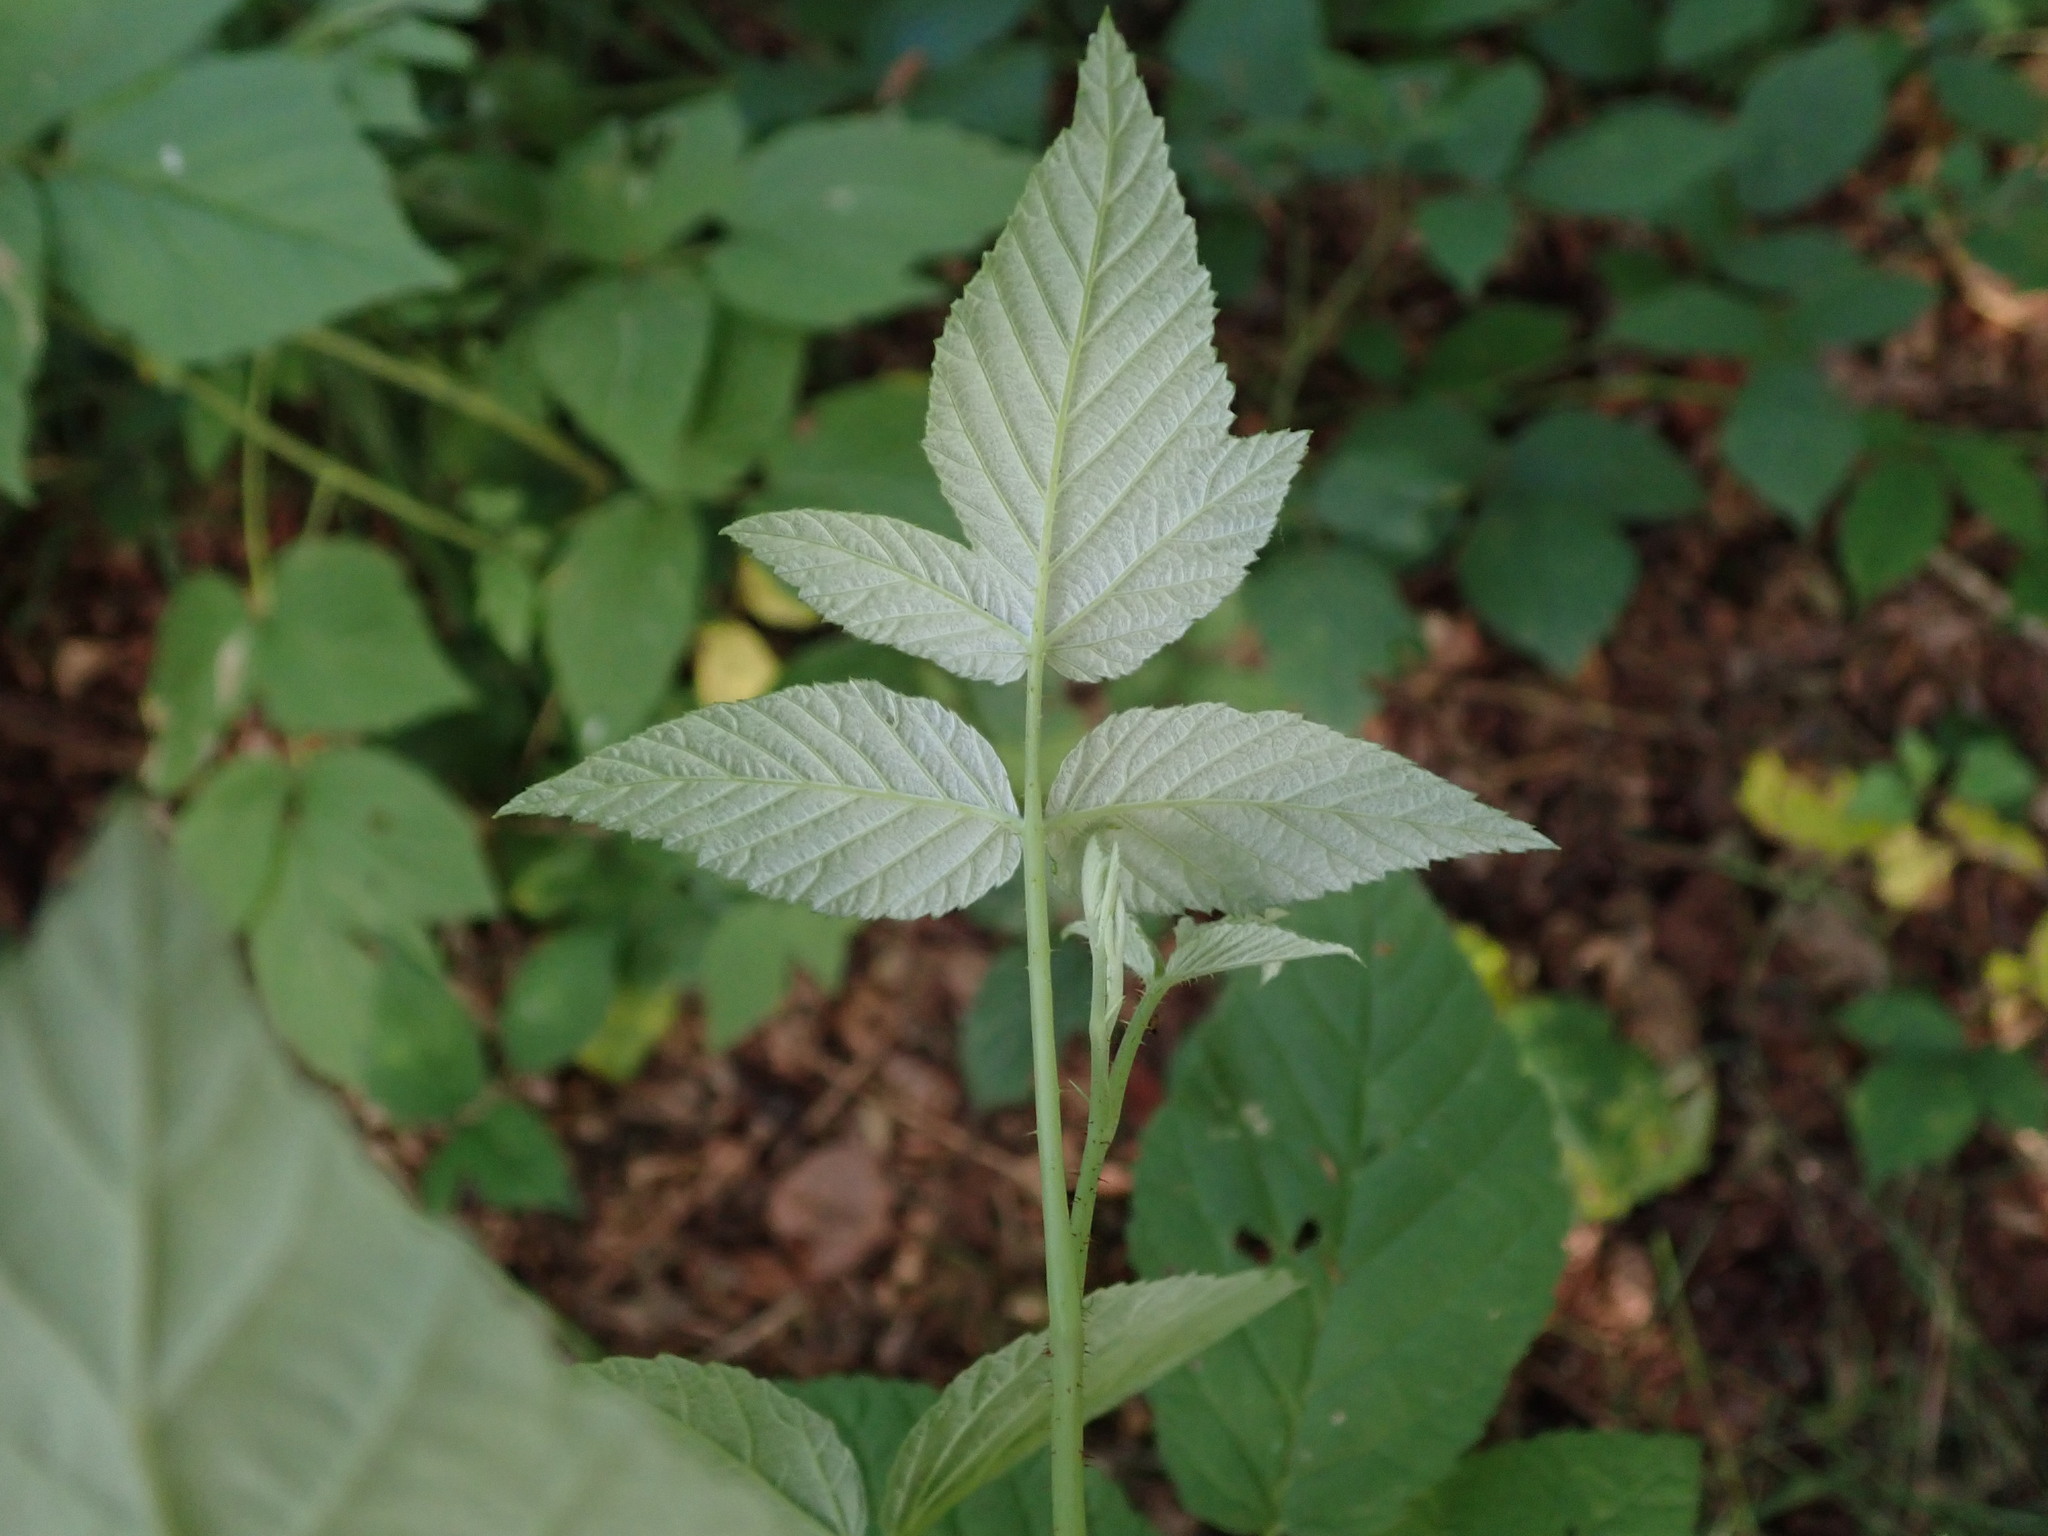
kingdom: Plantae
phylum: Tracheophyta
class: Magnoliopsida
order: Rosales
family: Rosaceae
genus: Rubus
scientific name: Rubus idaeus
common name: Raspberry
